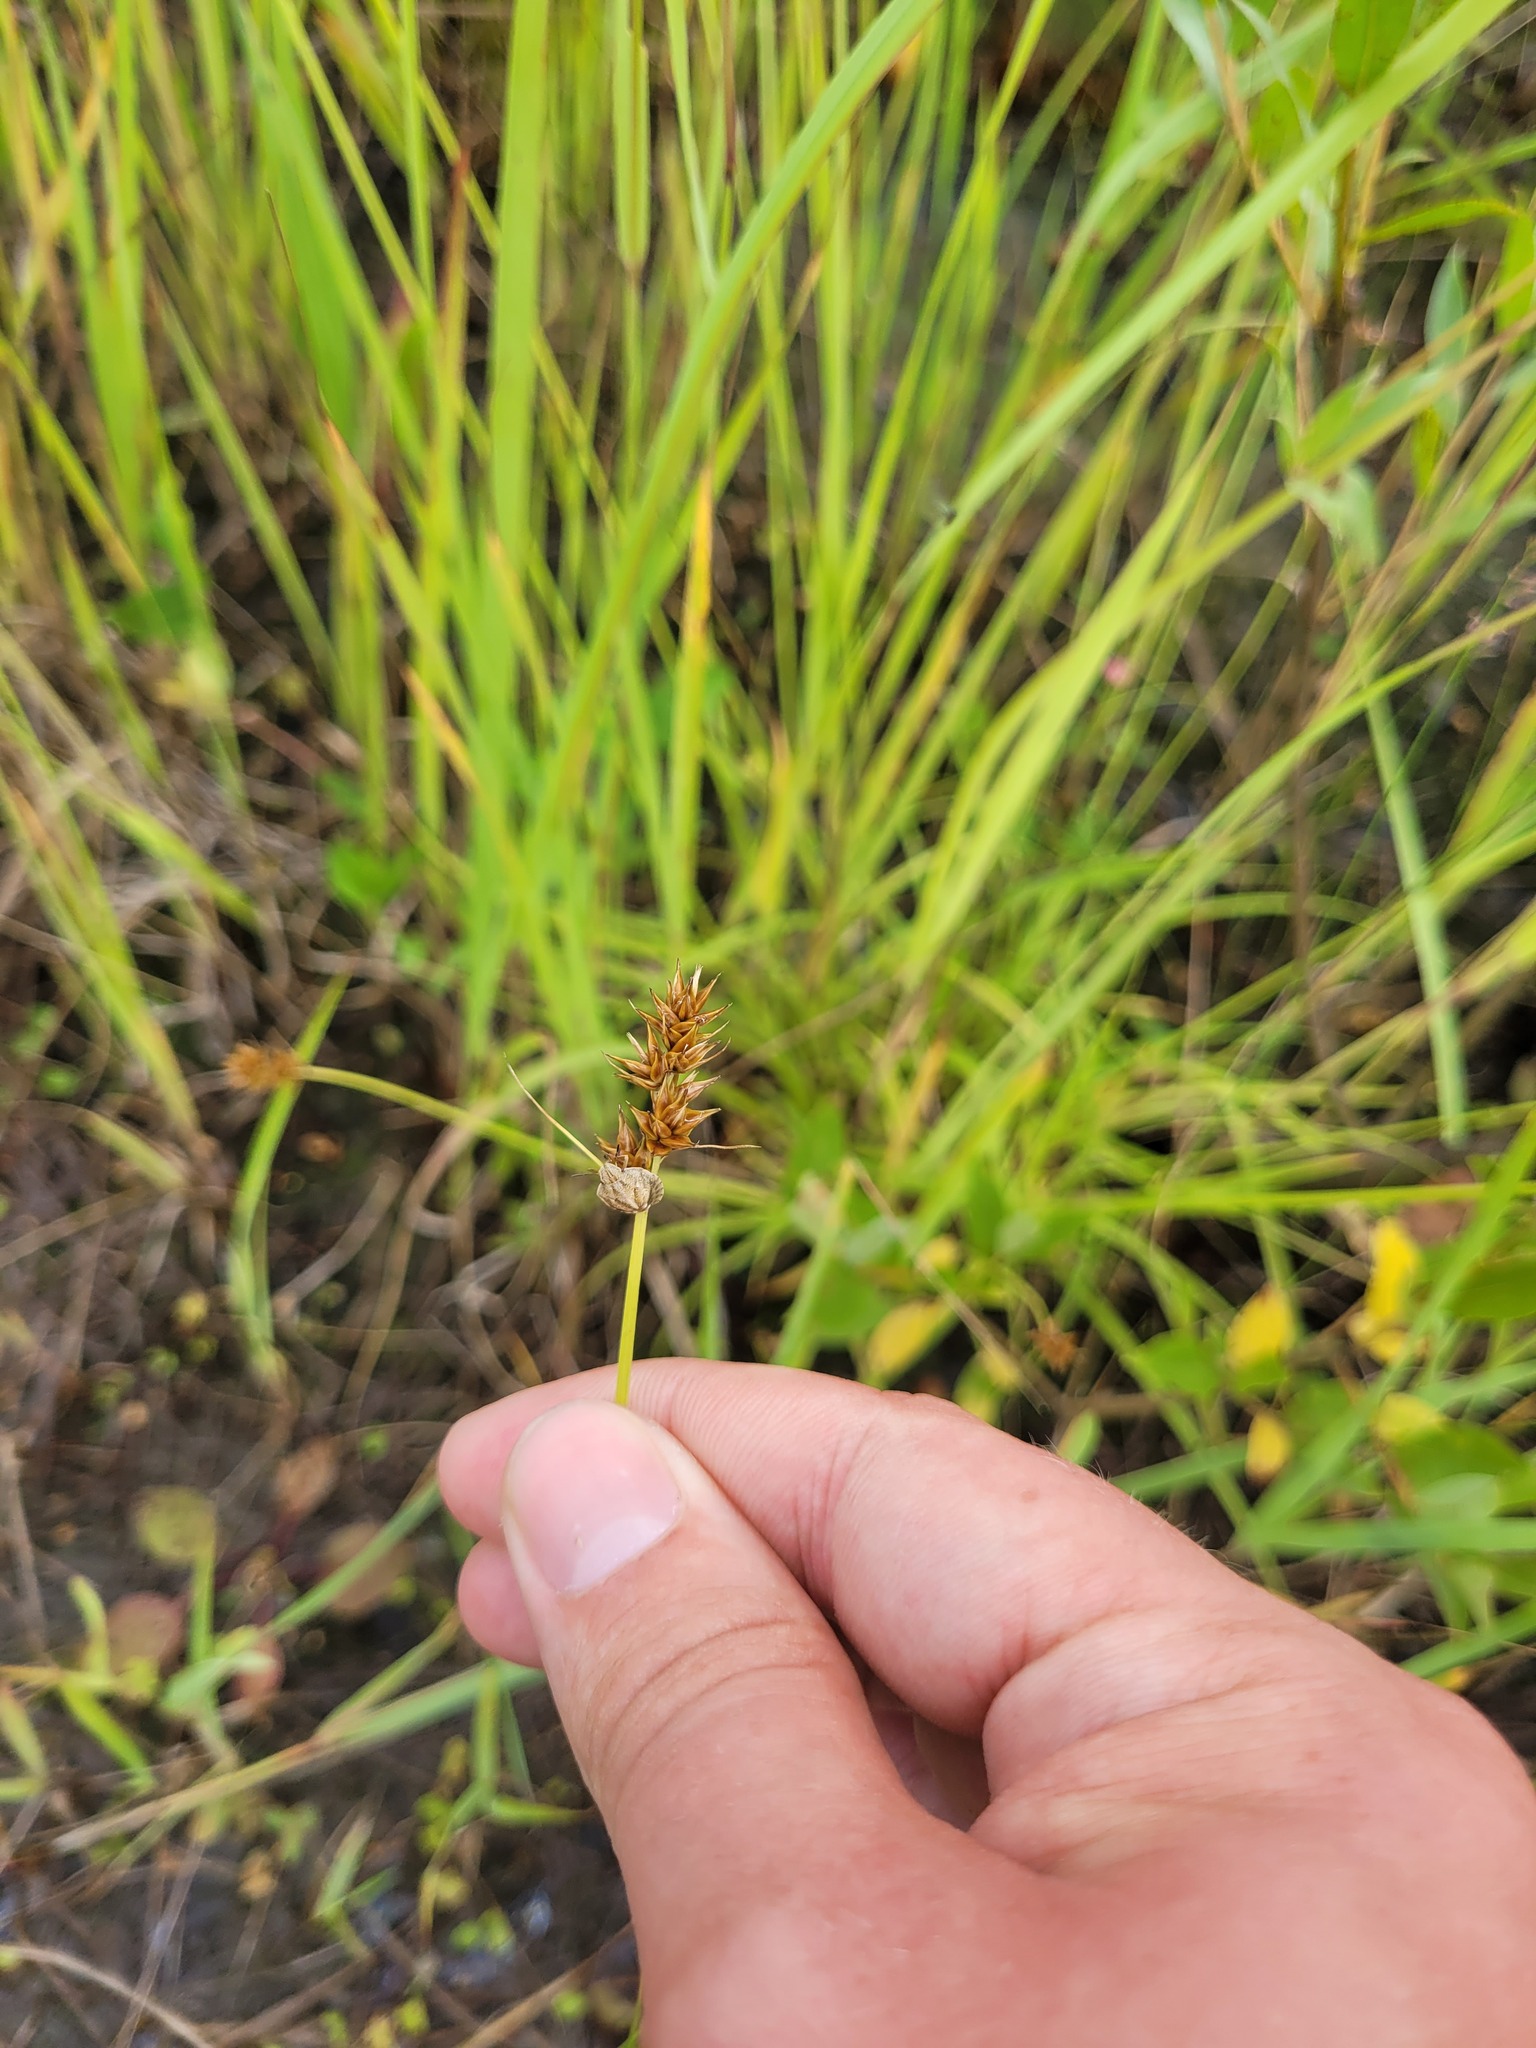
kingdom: Plantae
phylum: Tracheophyta
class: Liliopsida
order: Poales
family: Cyperaceae
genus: Carex
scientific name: Carex spicata
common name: Spiked sedge
